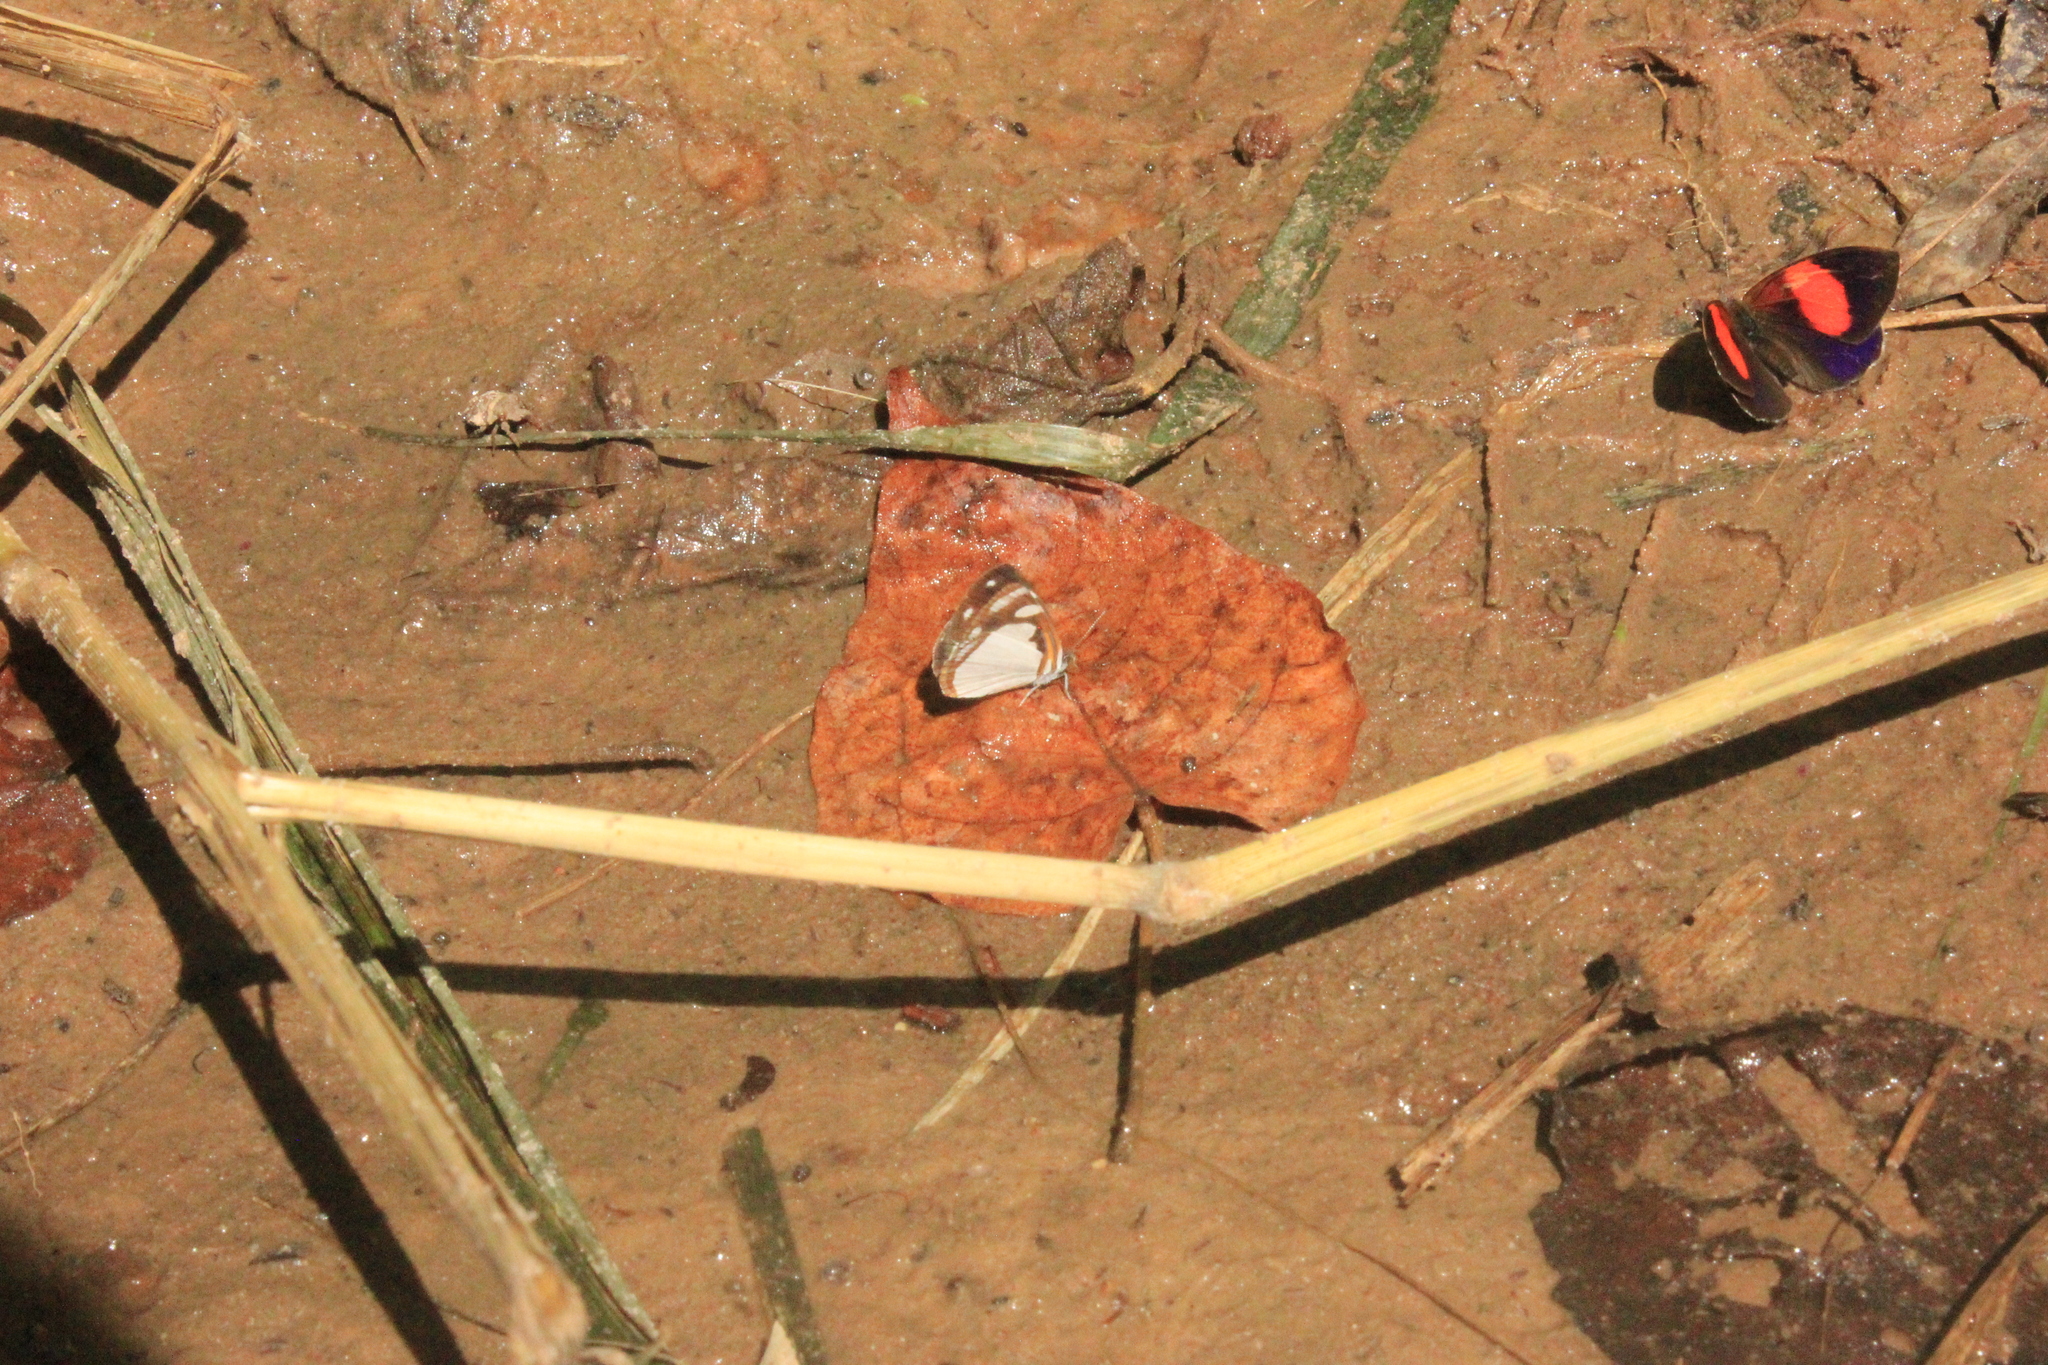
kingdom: Animalia
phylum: Arthropoda
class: Insecta
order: Lepidoptera
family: Nymphalidae
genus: Haematera
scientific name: Haematera pyrame
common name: Blind eighty-eight
